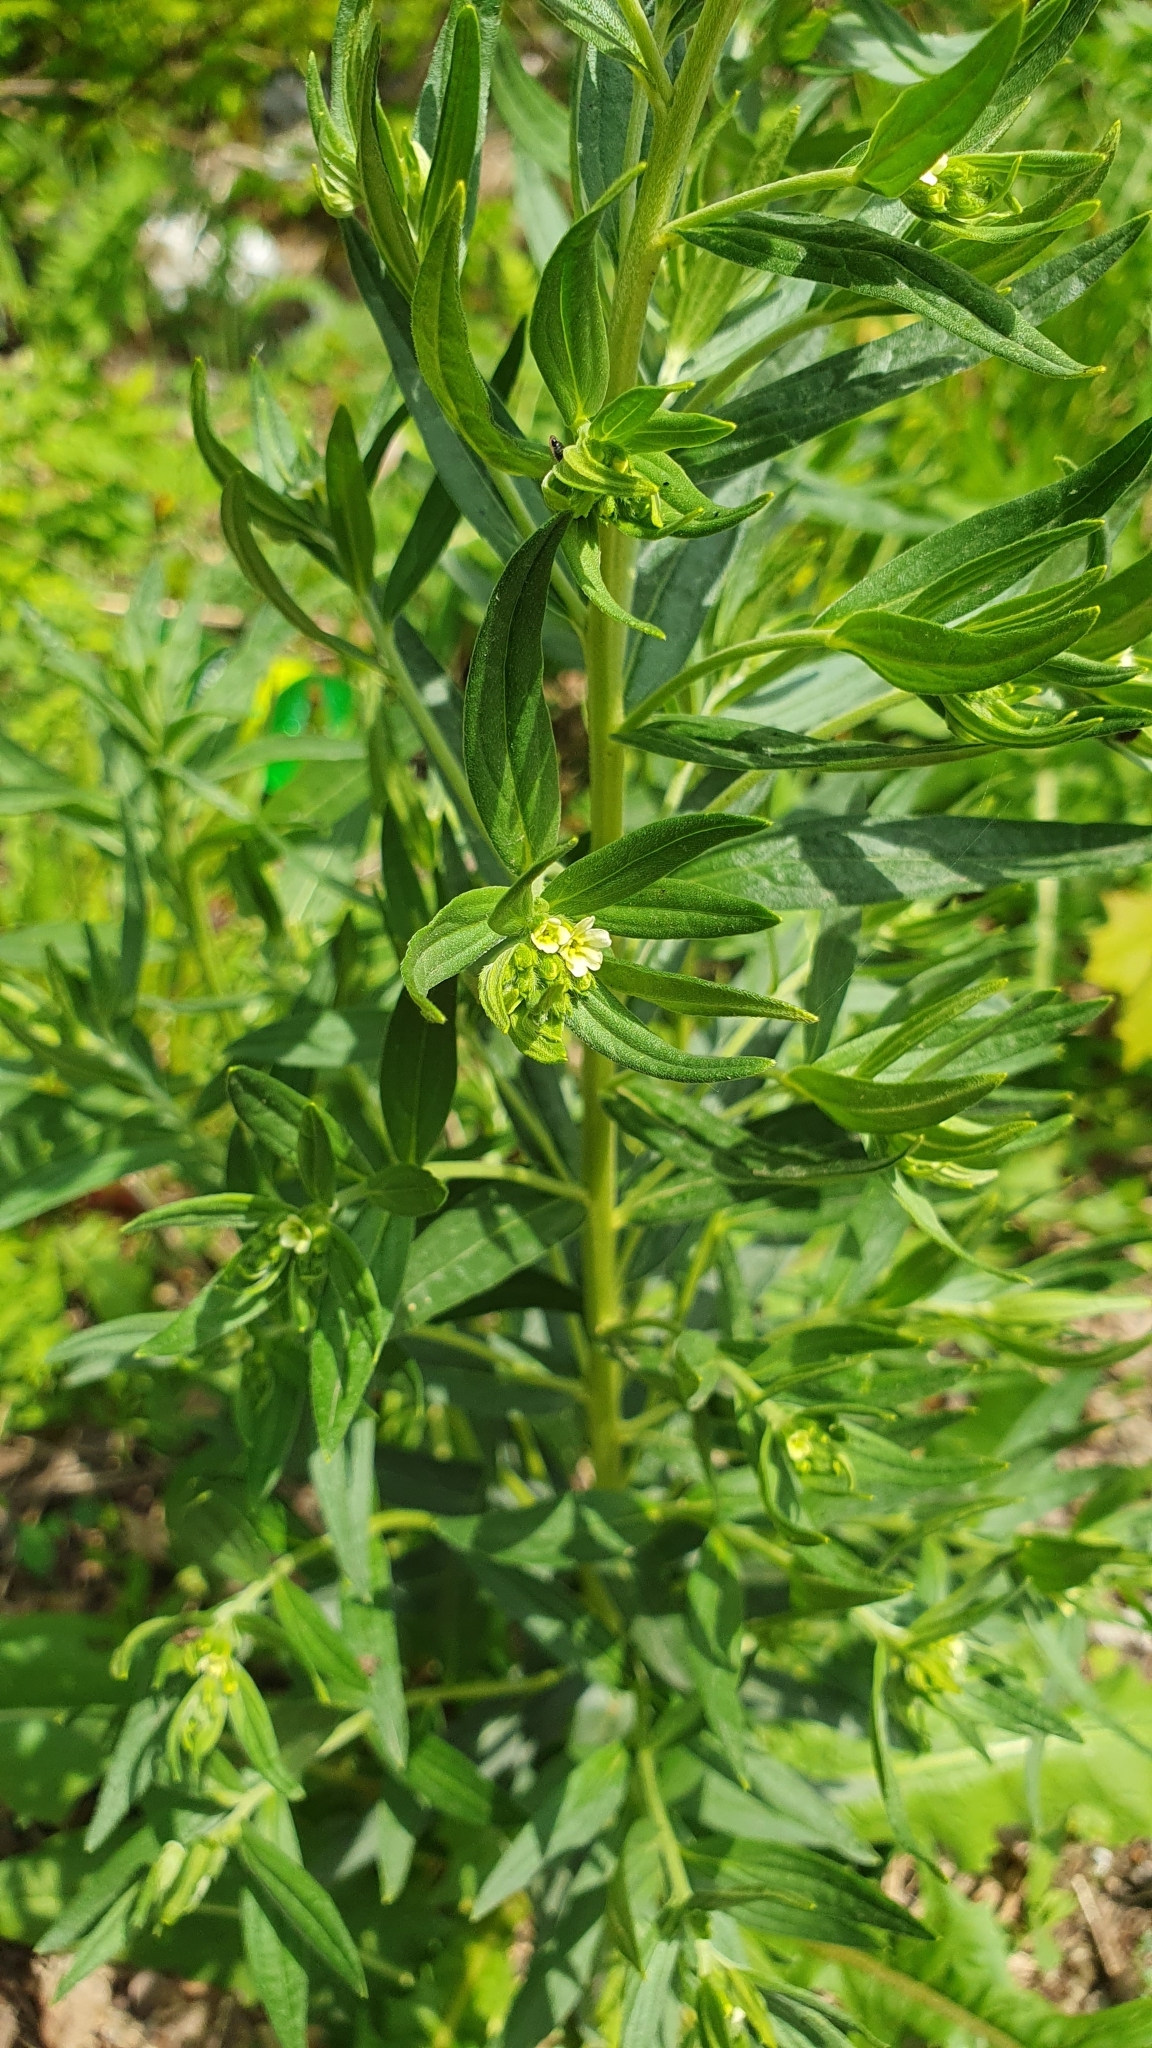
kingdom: Plantae
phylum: Tracheophyta
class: Magnoliopsida
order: Boraginales
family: Boraginaceae
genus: Lithospermum
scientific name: Lithospermum officinale
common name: Common gromwell
